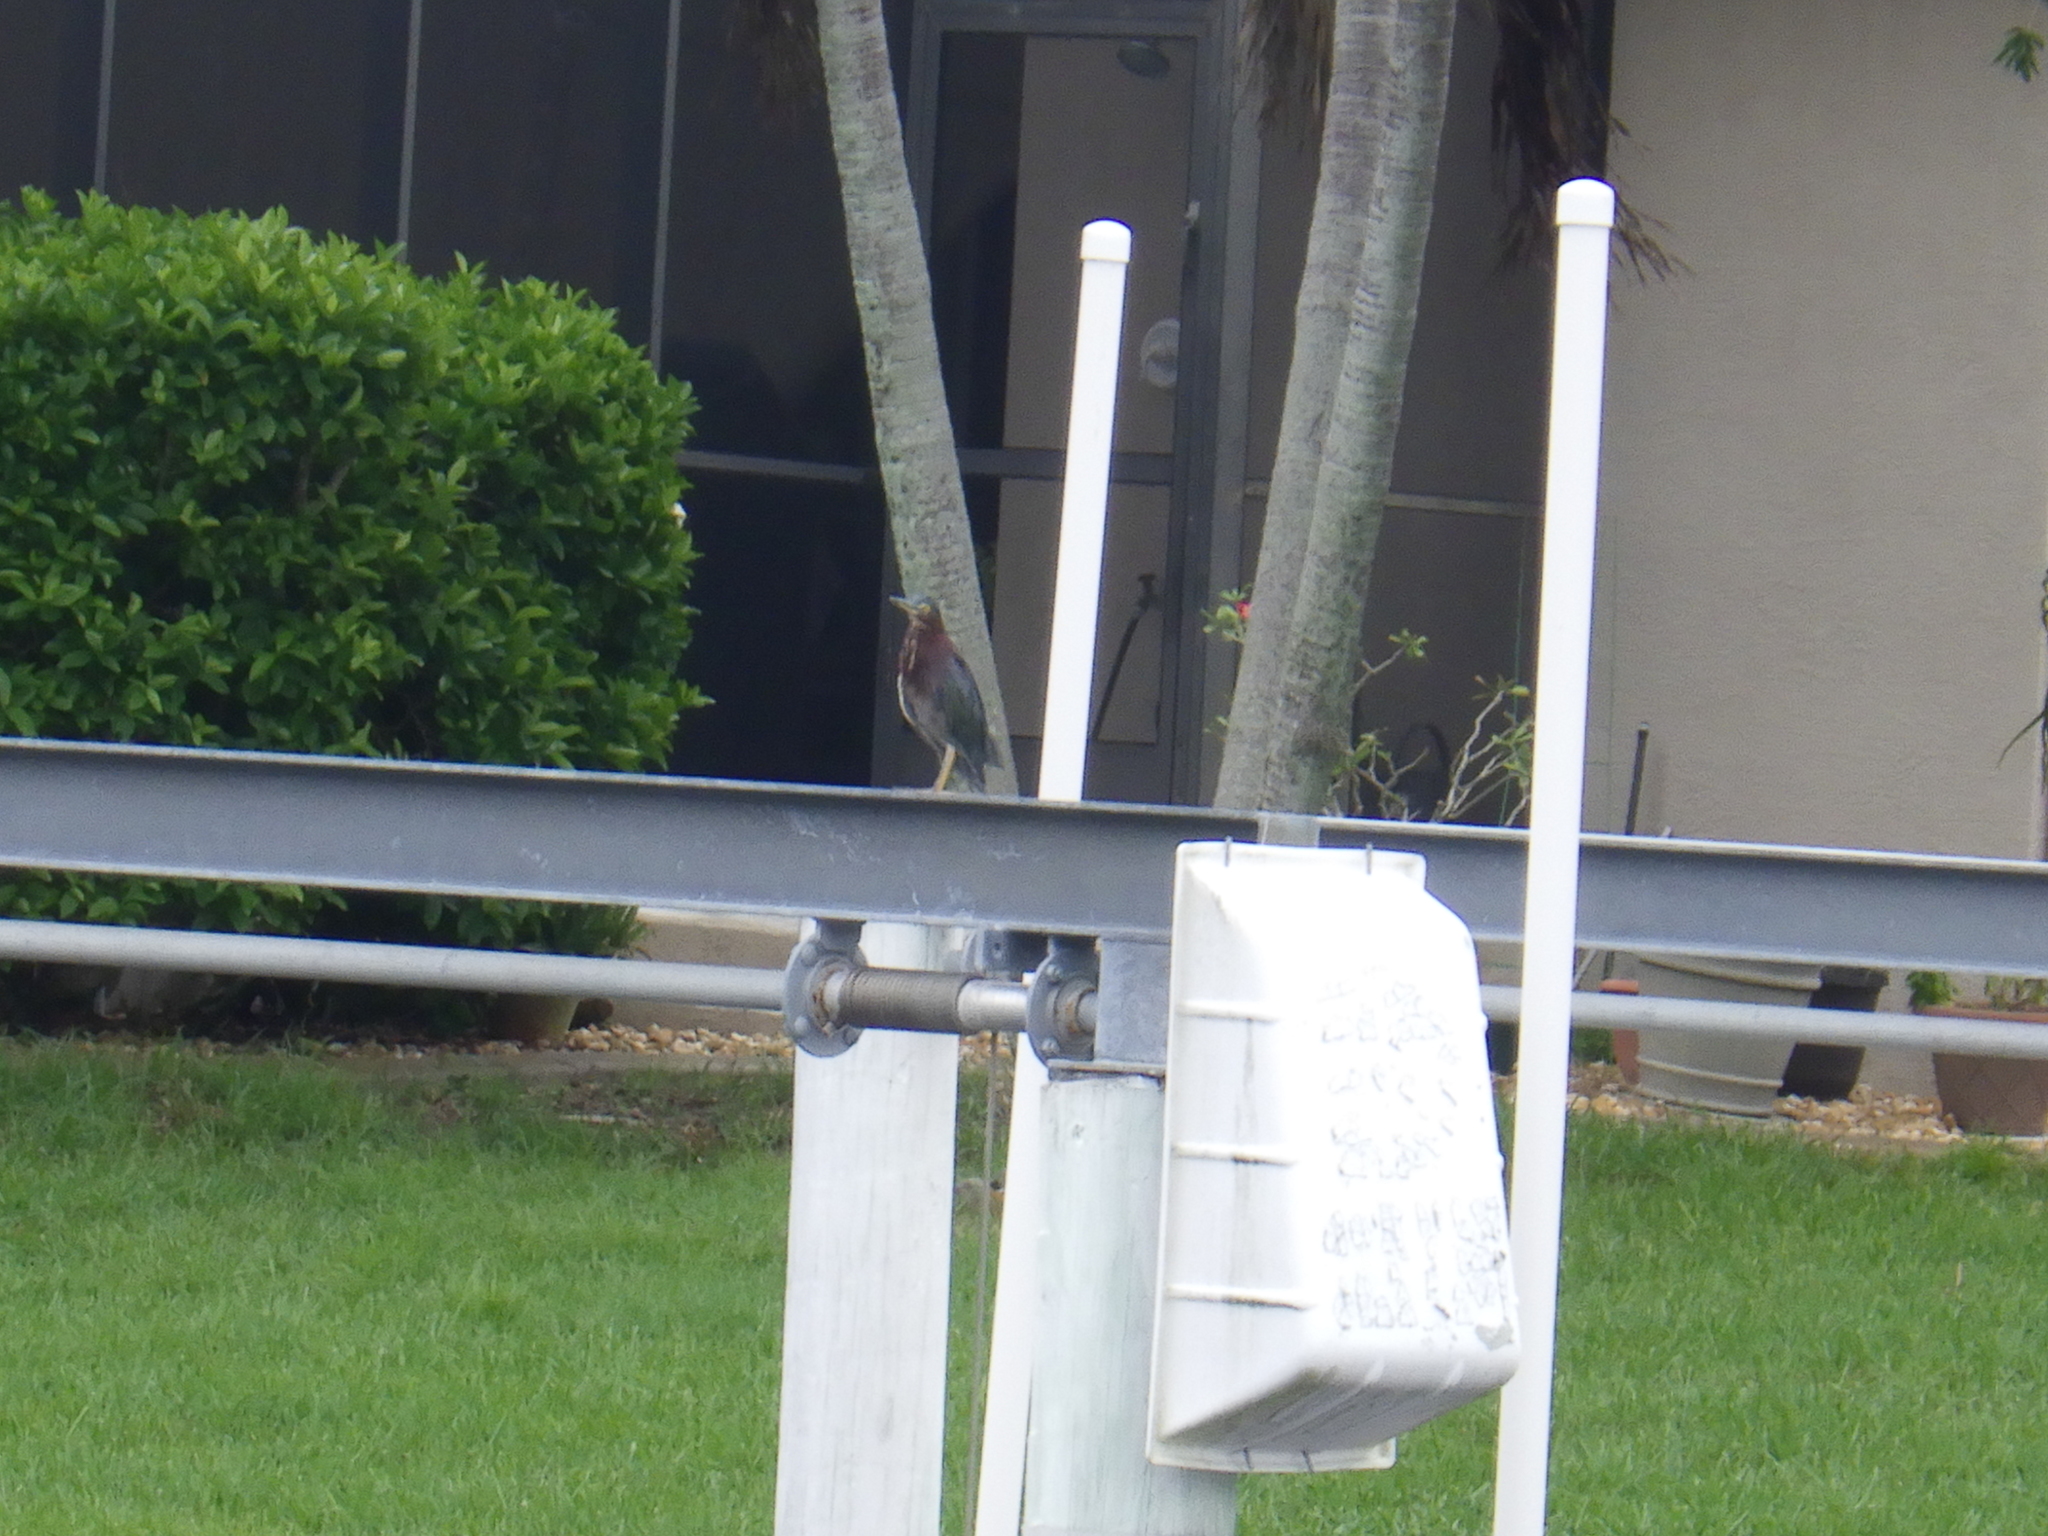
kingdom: Animalia
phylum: Chordata
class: Aves
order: Pelecaniformes
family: Ardeidae
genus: Butorides
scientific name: Butorides virescens
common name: Green heron
